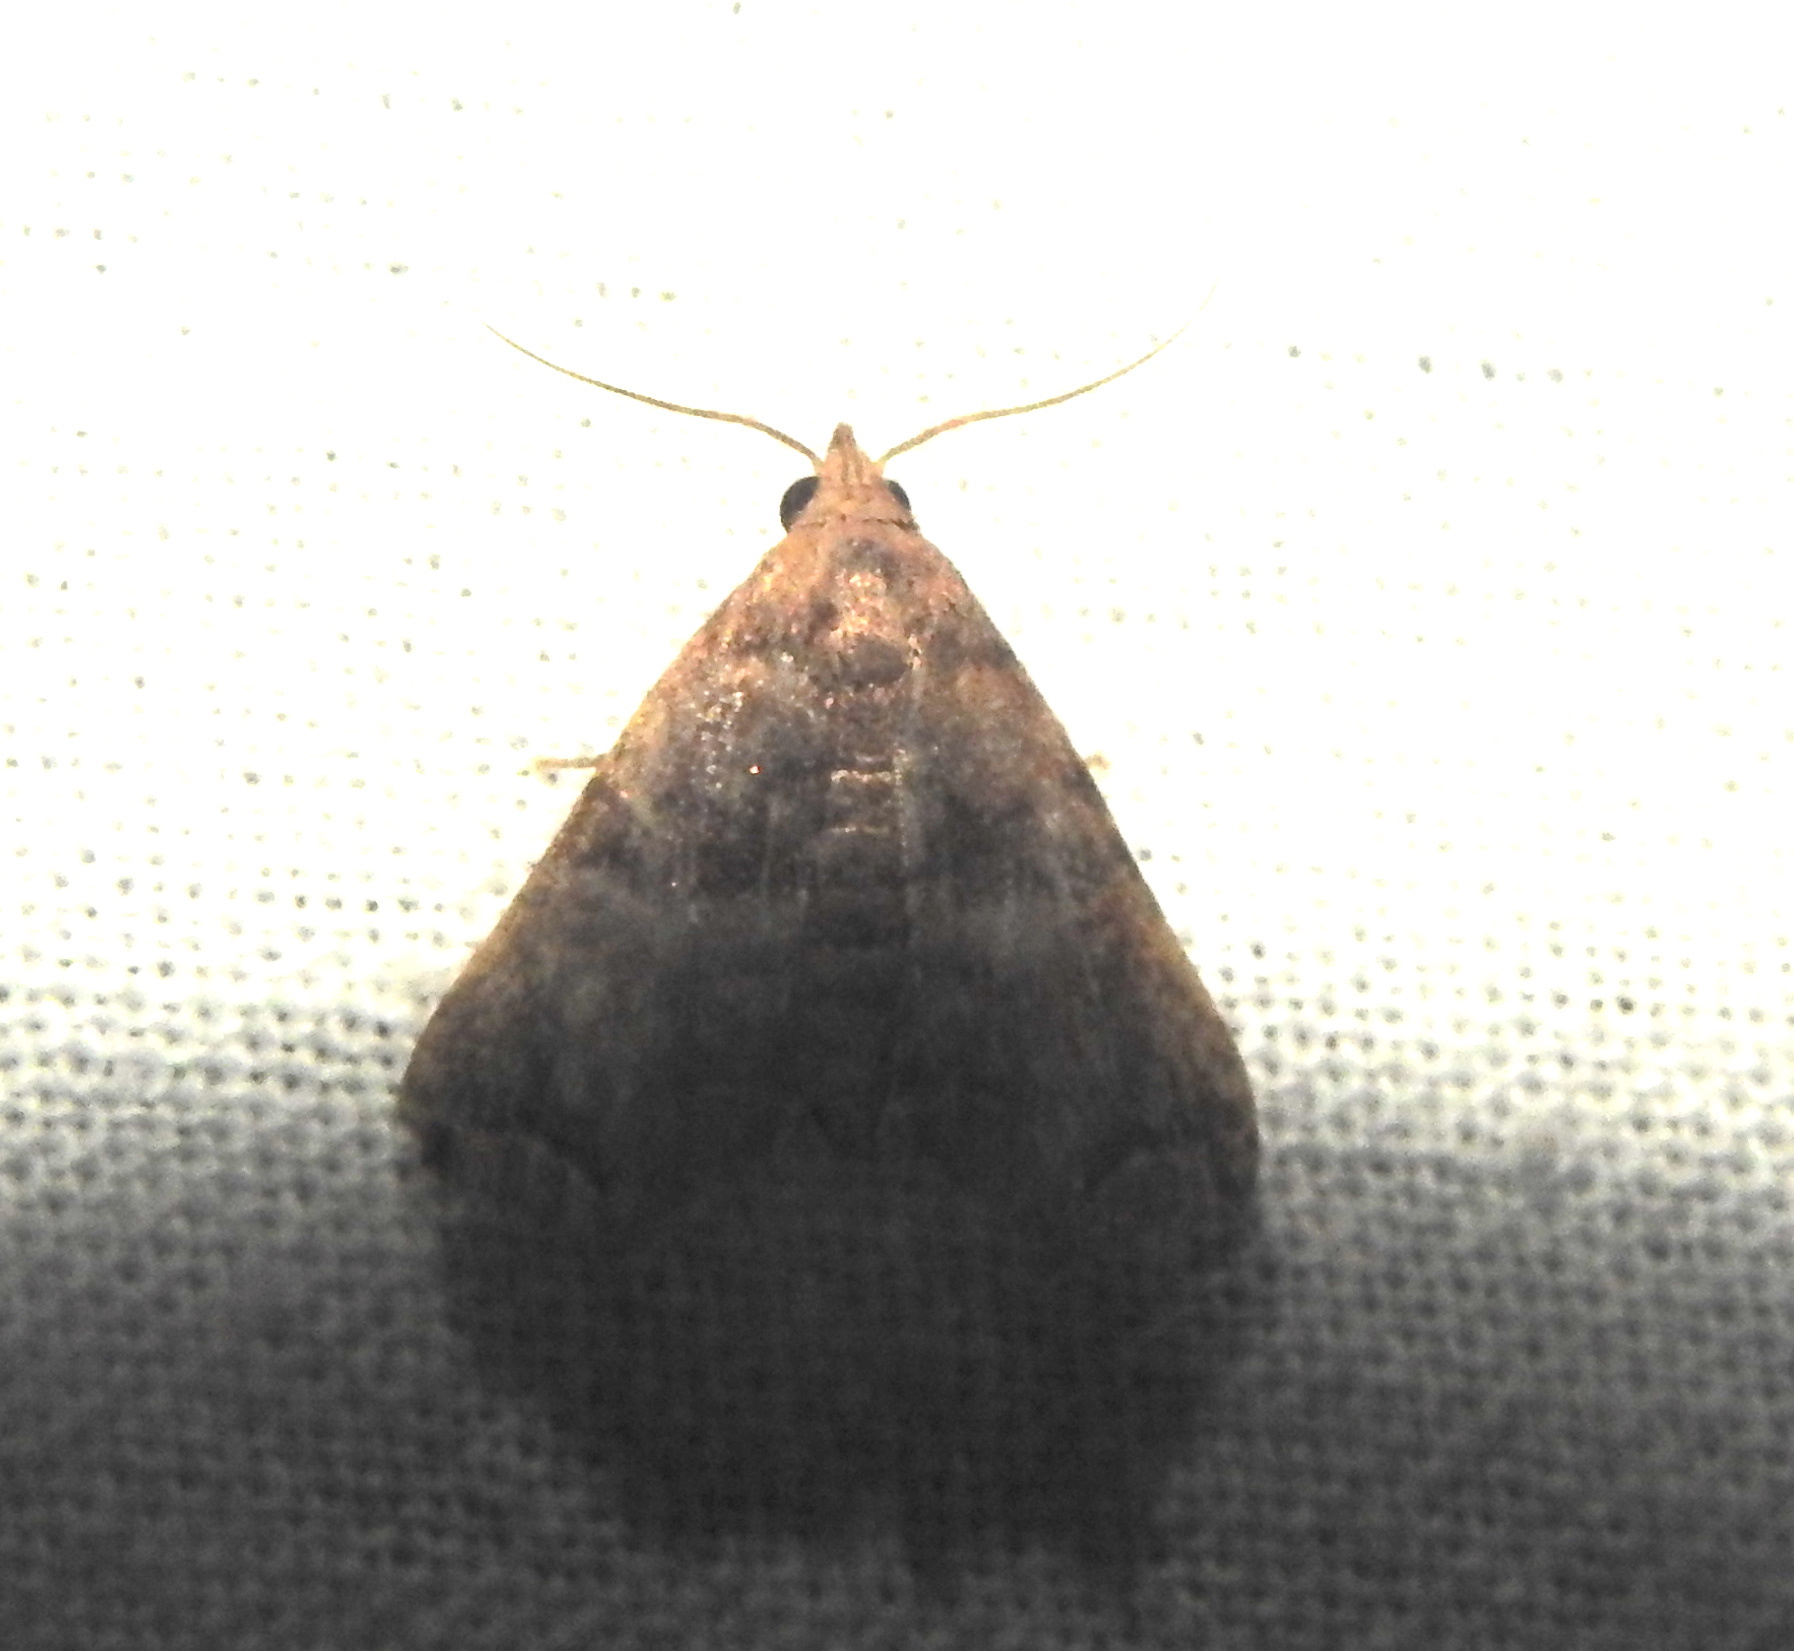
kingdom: Animalia
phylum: Arthropoda
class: Insecta
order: Lepidoptera
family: Erebidae
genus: Polypogon
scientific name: Polypogon biasalis
